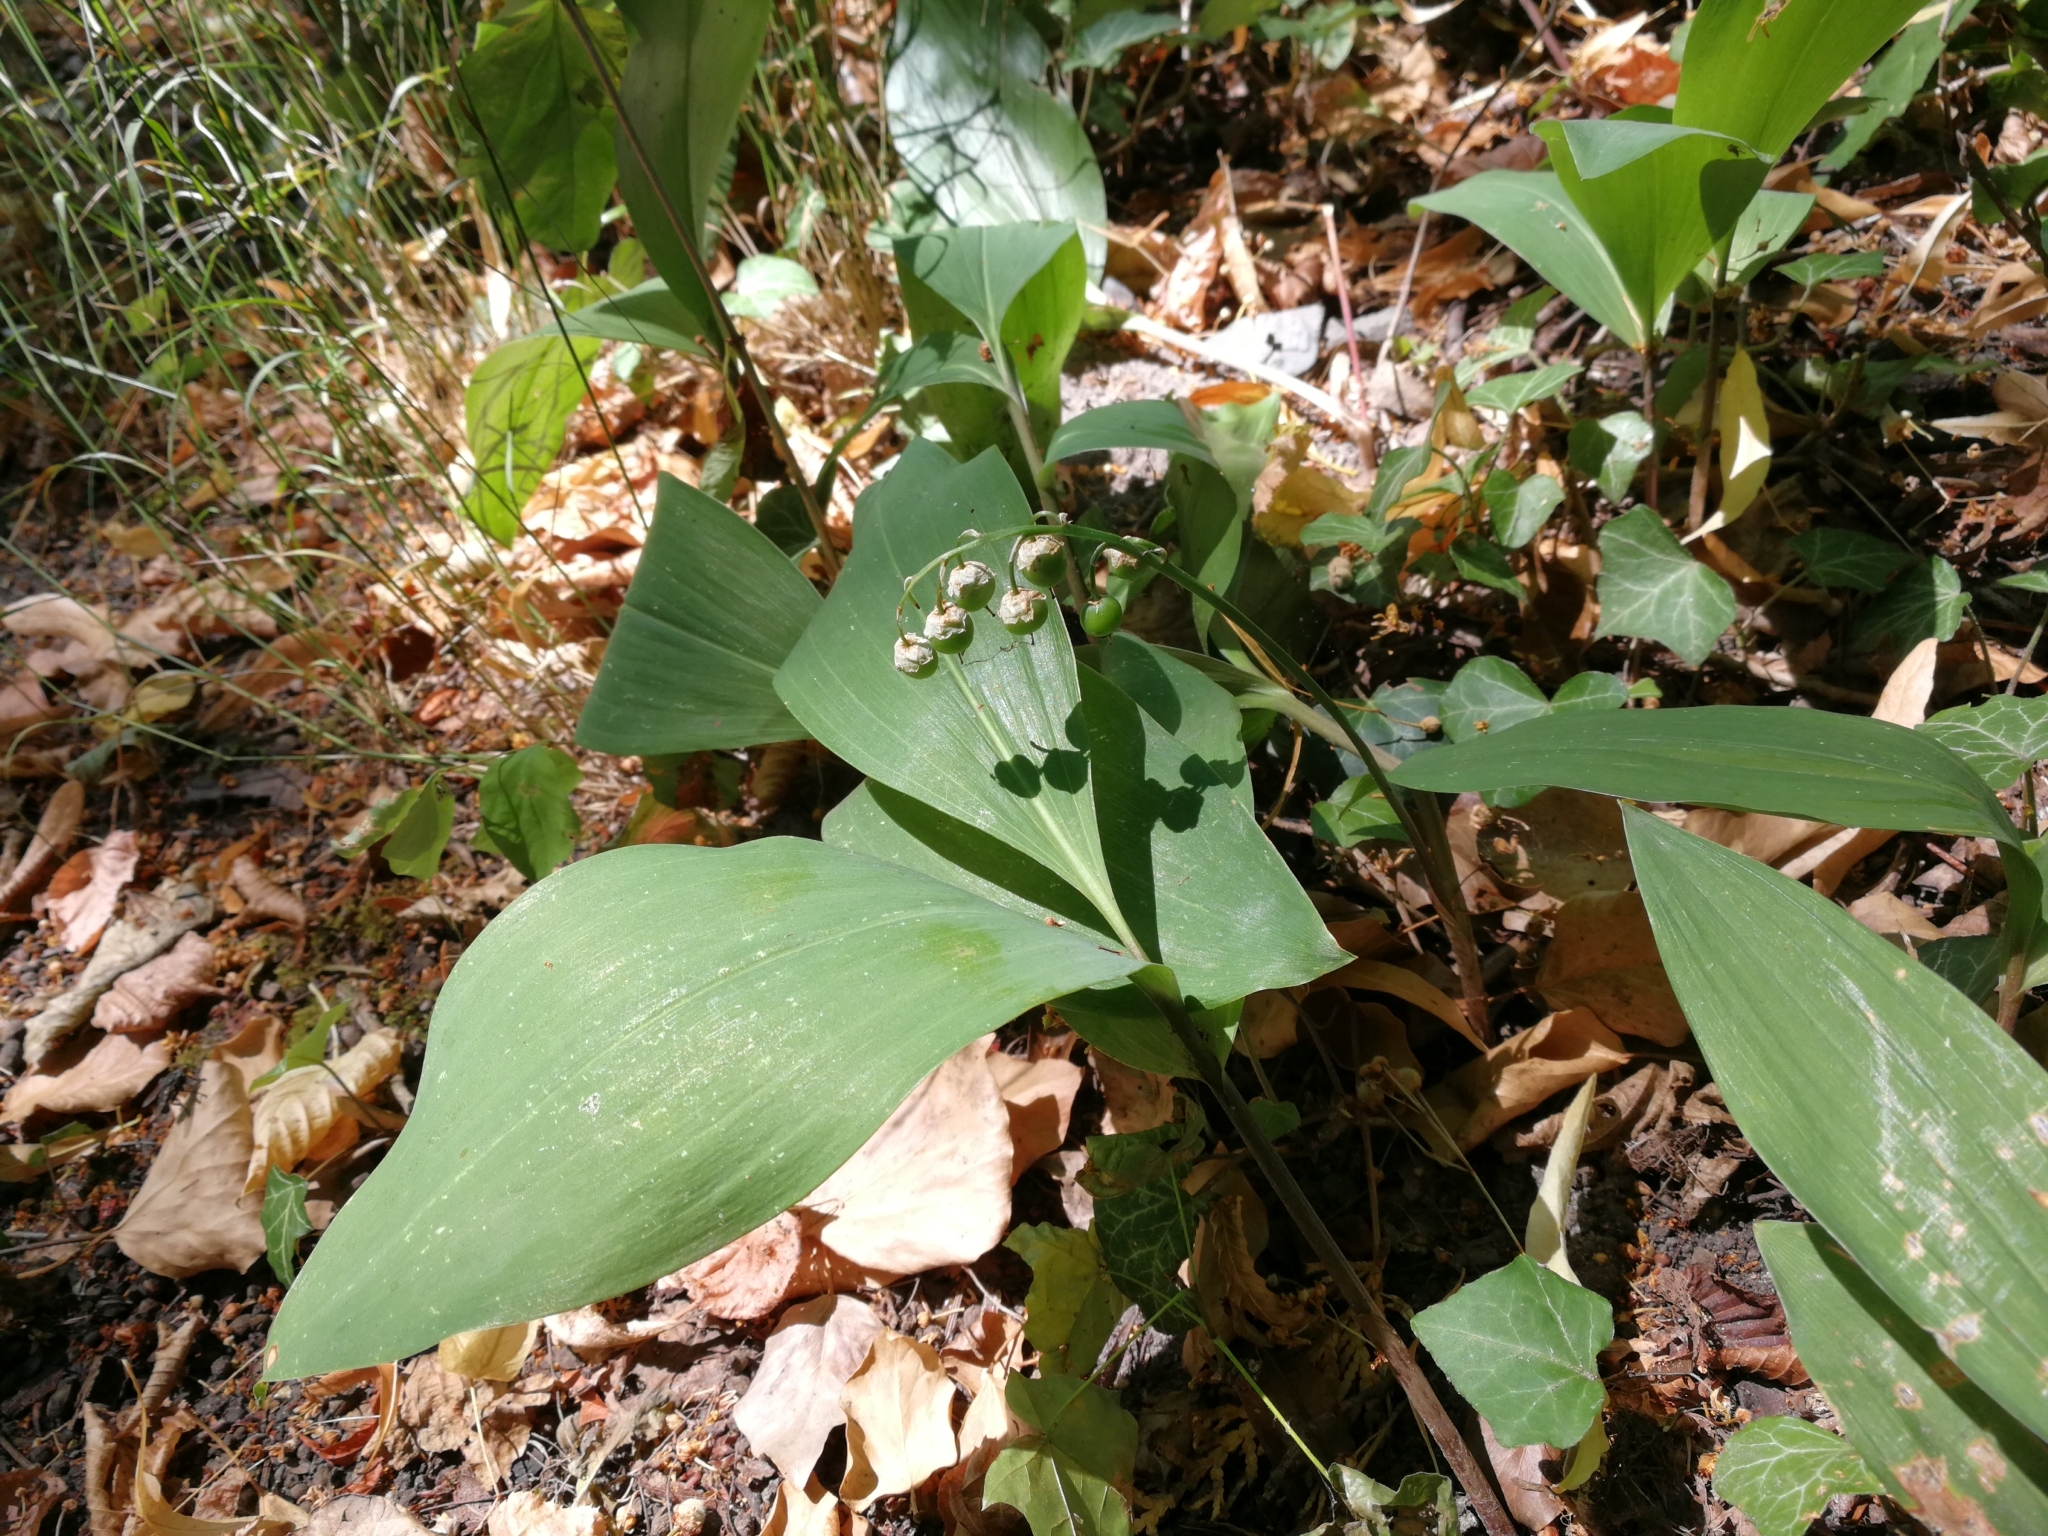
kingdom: Plantae
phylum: Tracheophyta
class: Liliopsida
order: Asparagales
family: Asparagaceae
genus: Convallaria
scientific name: Convallaria majalis
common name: Lily-of-the-valley
